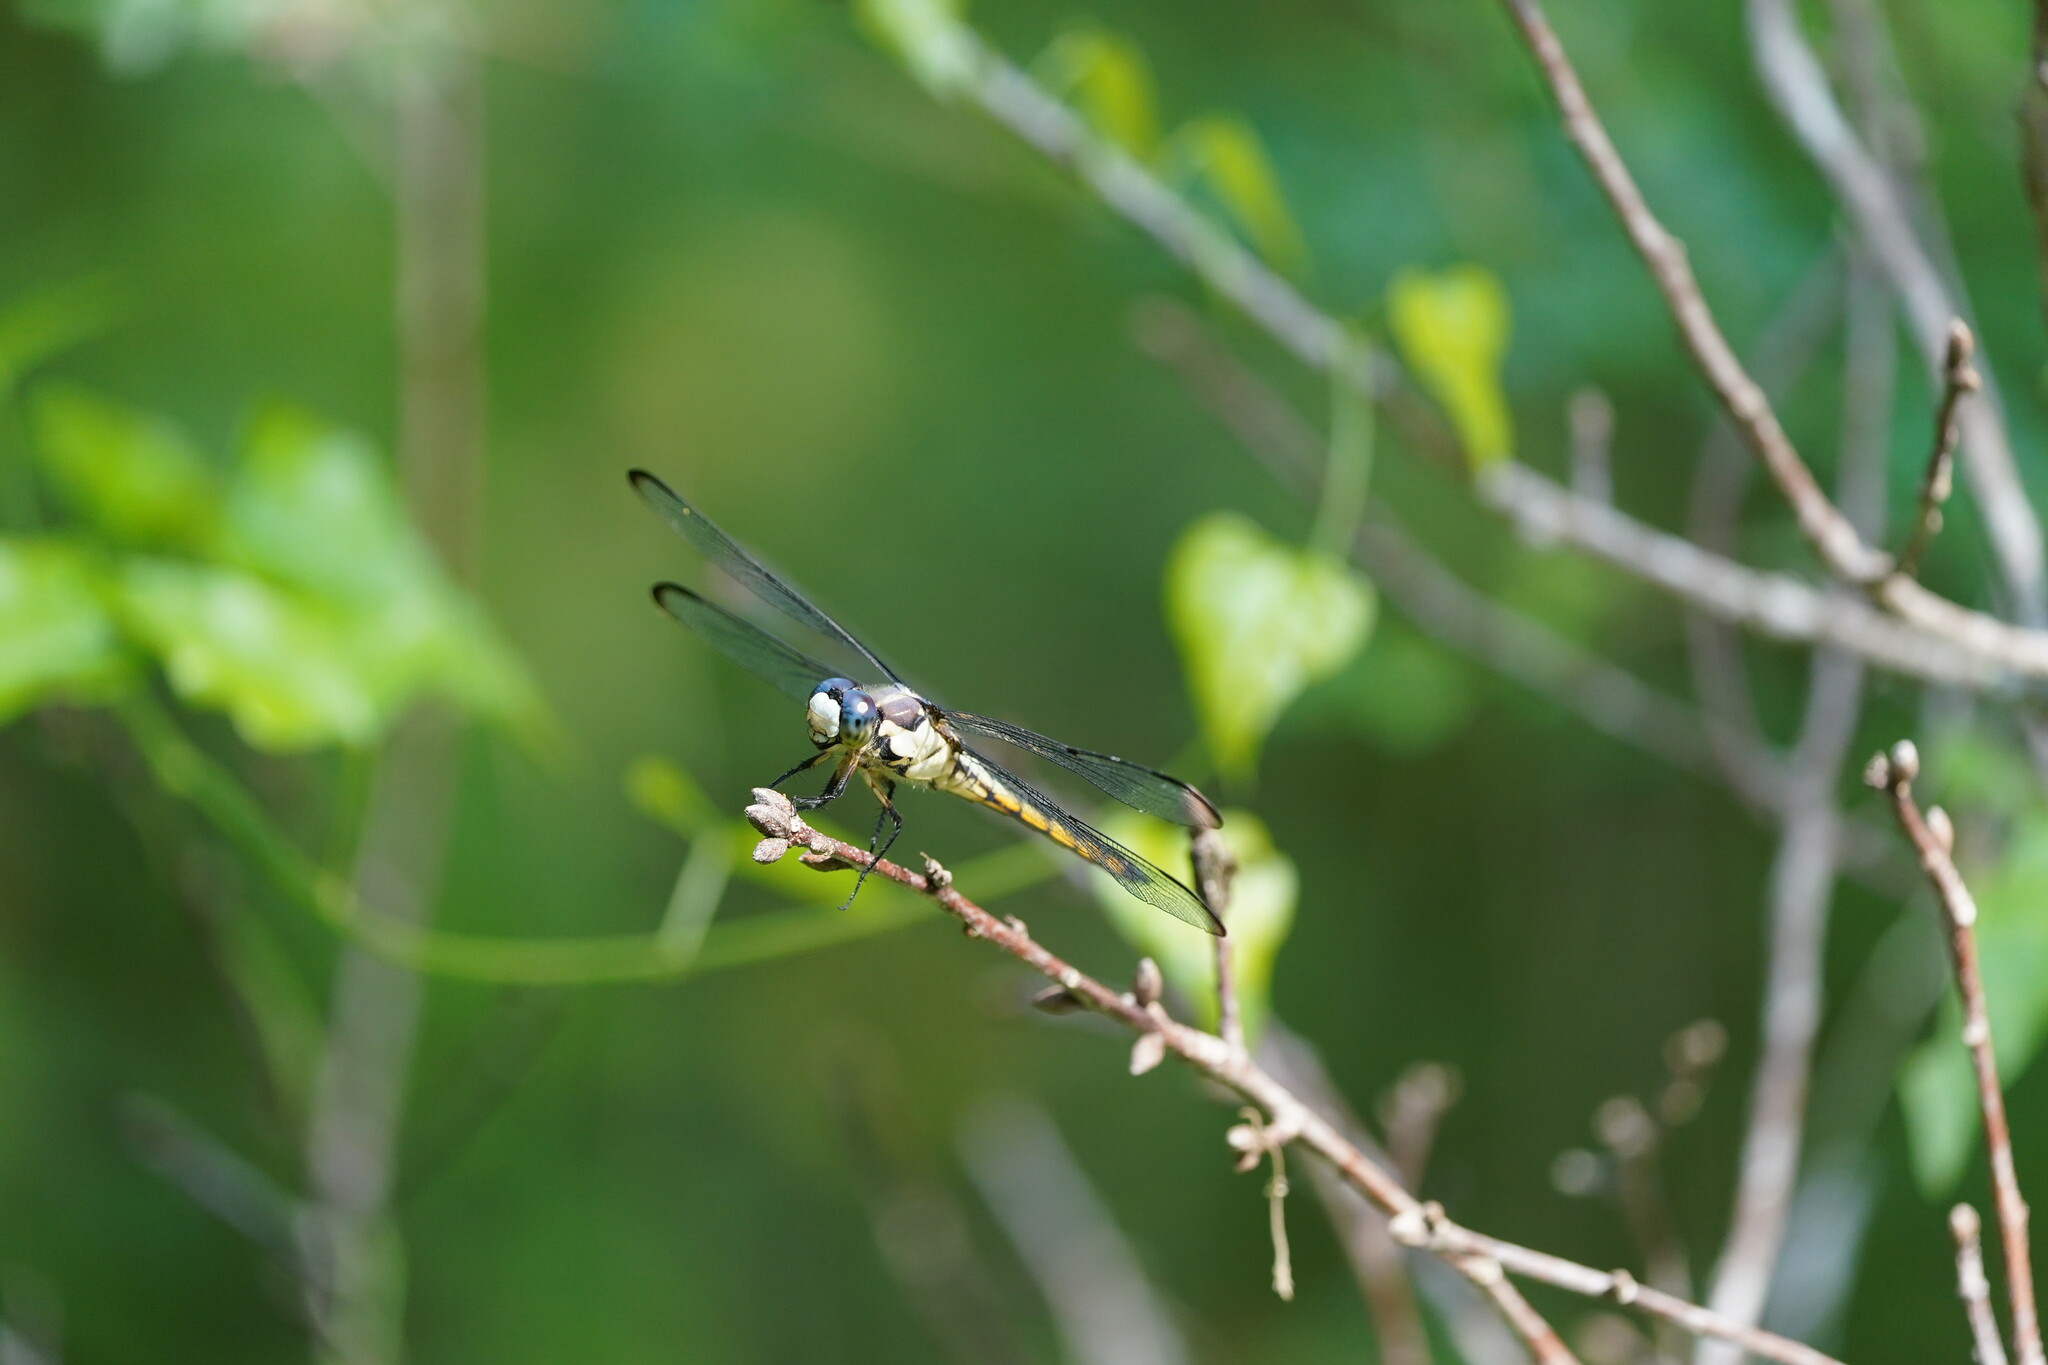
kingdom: Animalia
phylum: Arthropoda
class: Insecta
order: Odonata
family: Libellulidae
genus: Libellula
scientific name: Libellula vibrans
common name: Great blue skimmer
